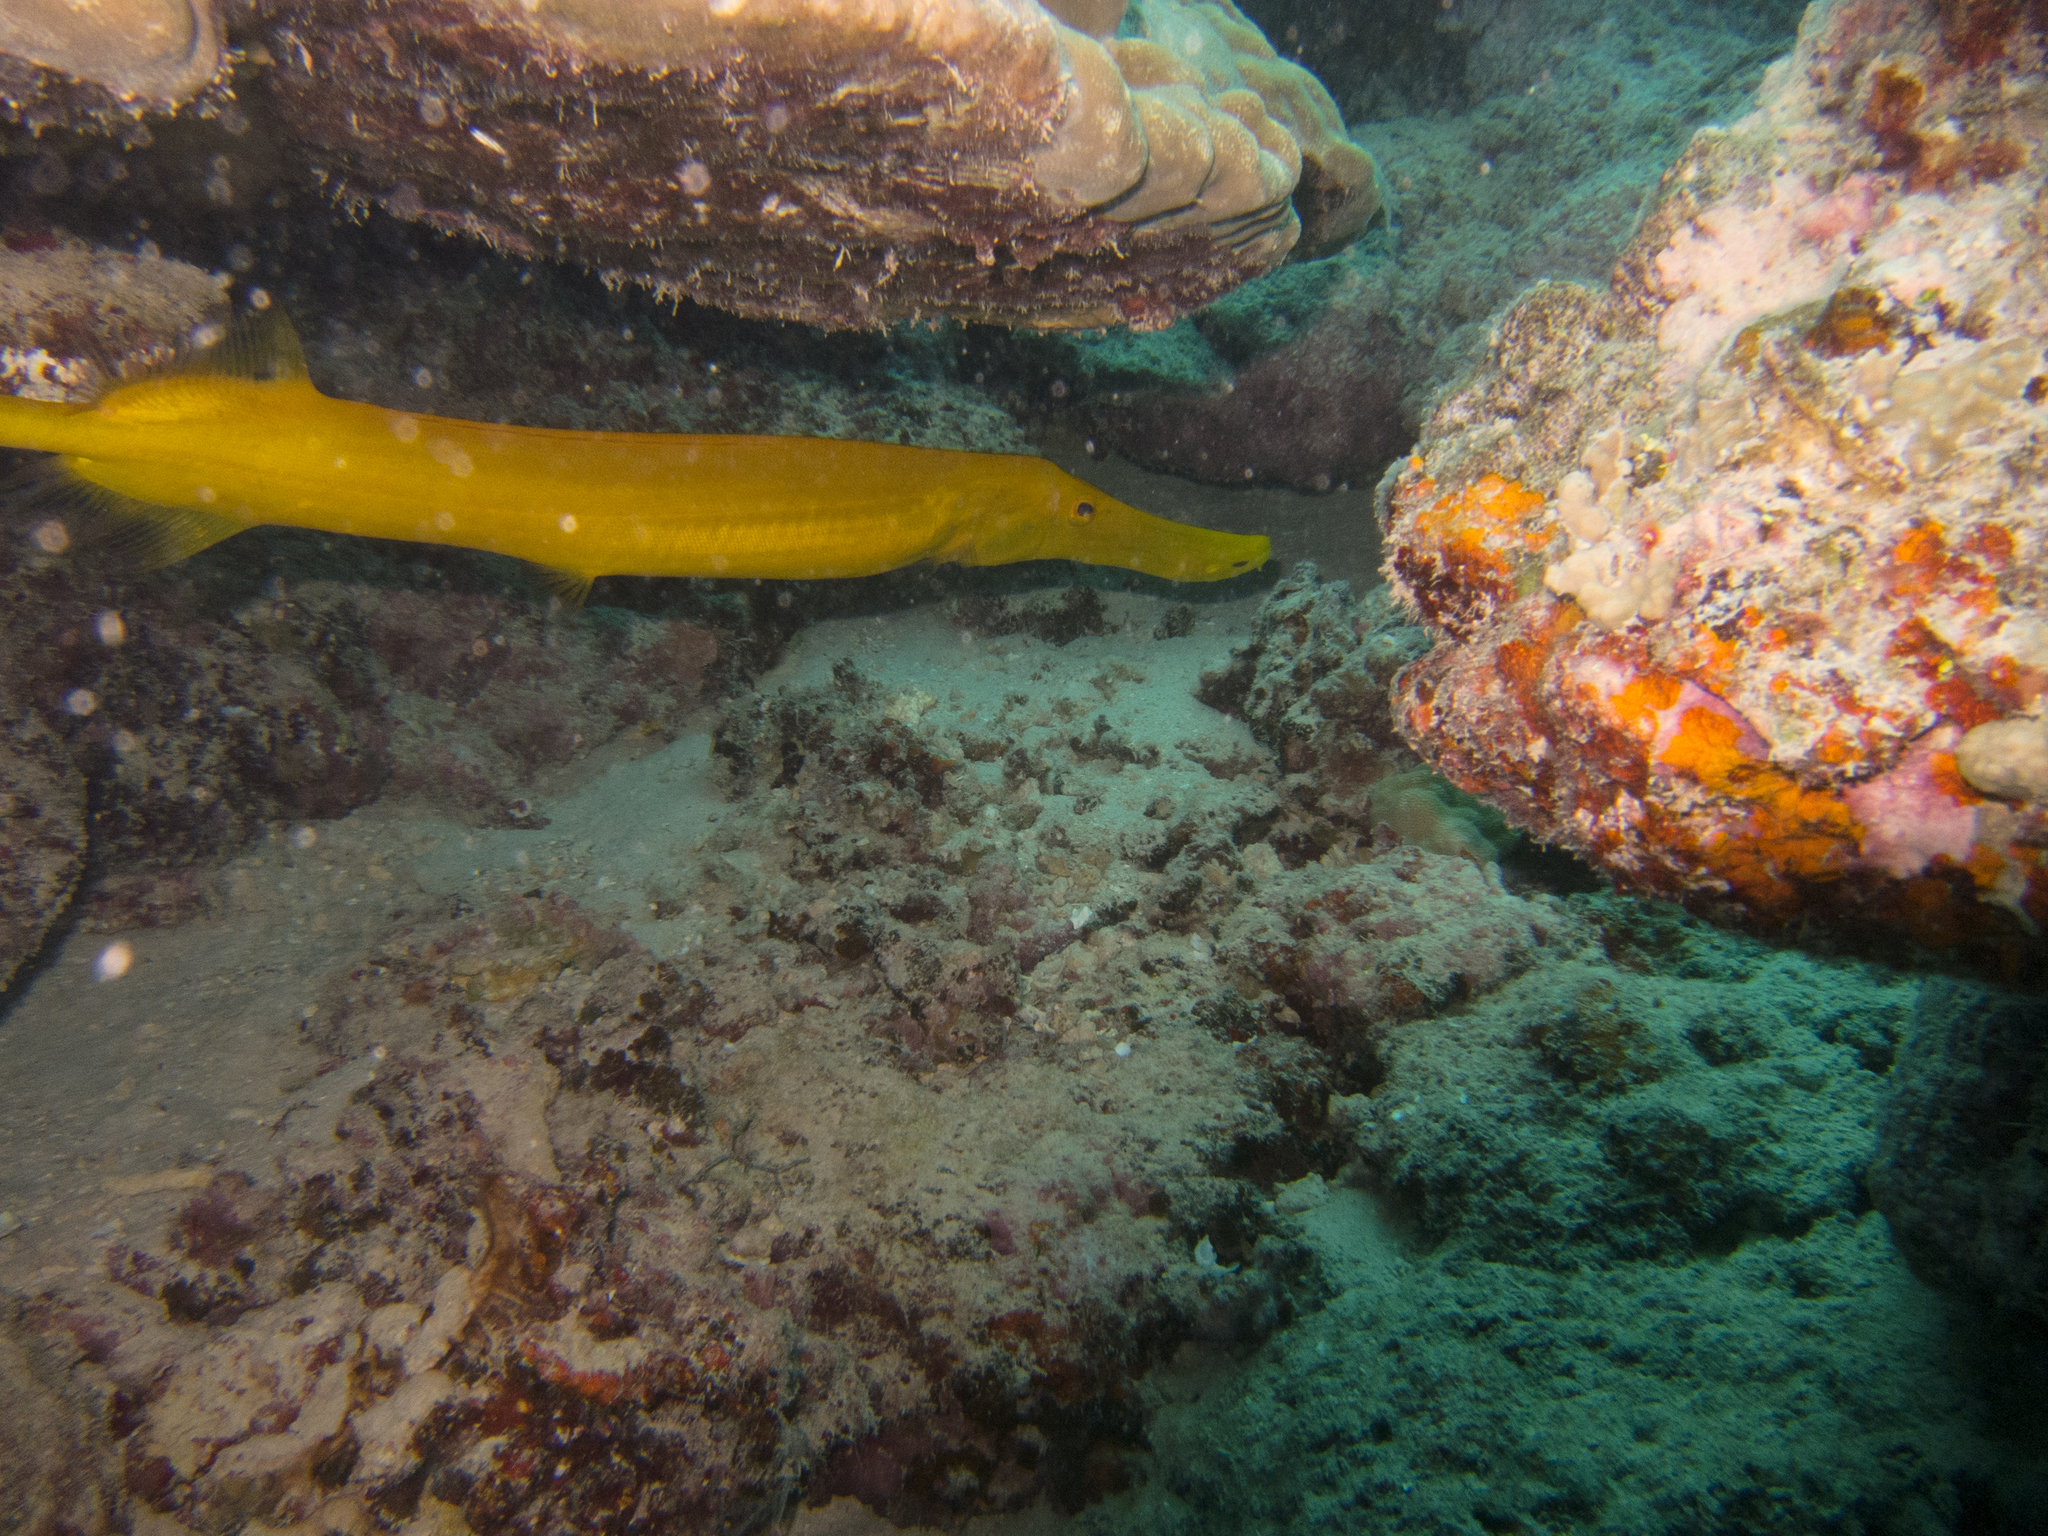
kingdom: Animalia
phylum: Chordata
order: Syngnathiformes
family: Aulostomidae
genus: Aulostomus
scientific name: Aulostomus chinensis
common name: Chinese trumpetfish
